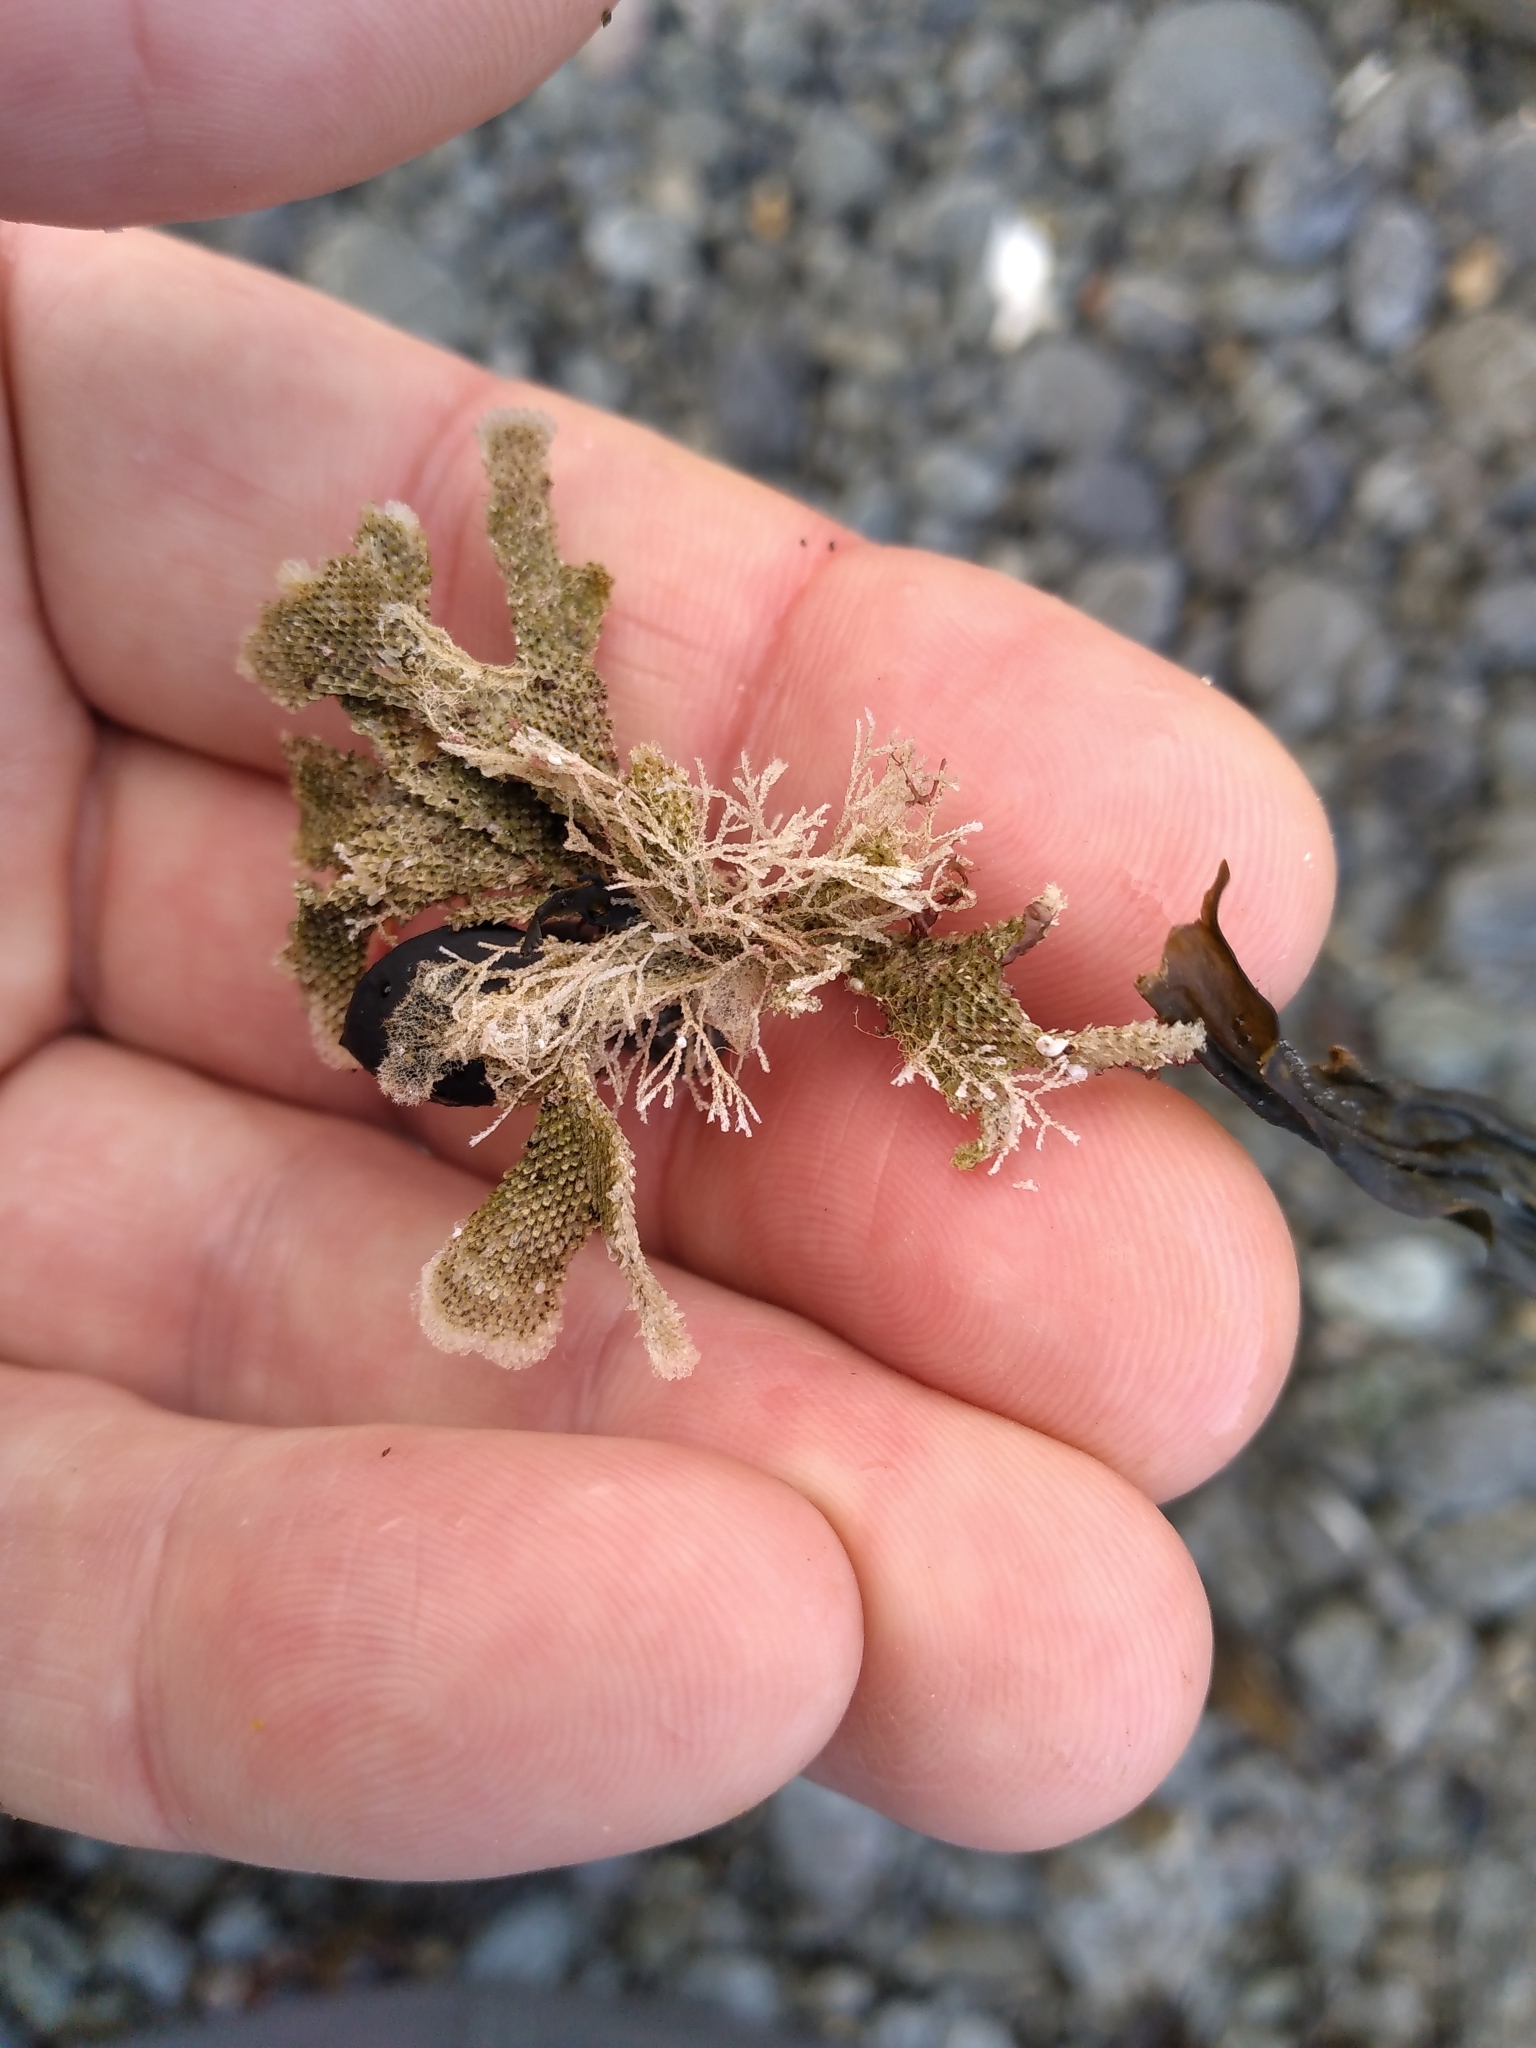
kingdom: Animalia
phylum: Bryozoa
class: Gymnolaemata
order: Cheilostomatida
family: Beaniidae
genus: Beania
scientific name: Beania bilaminata
